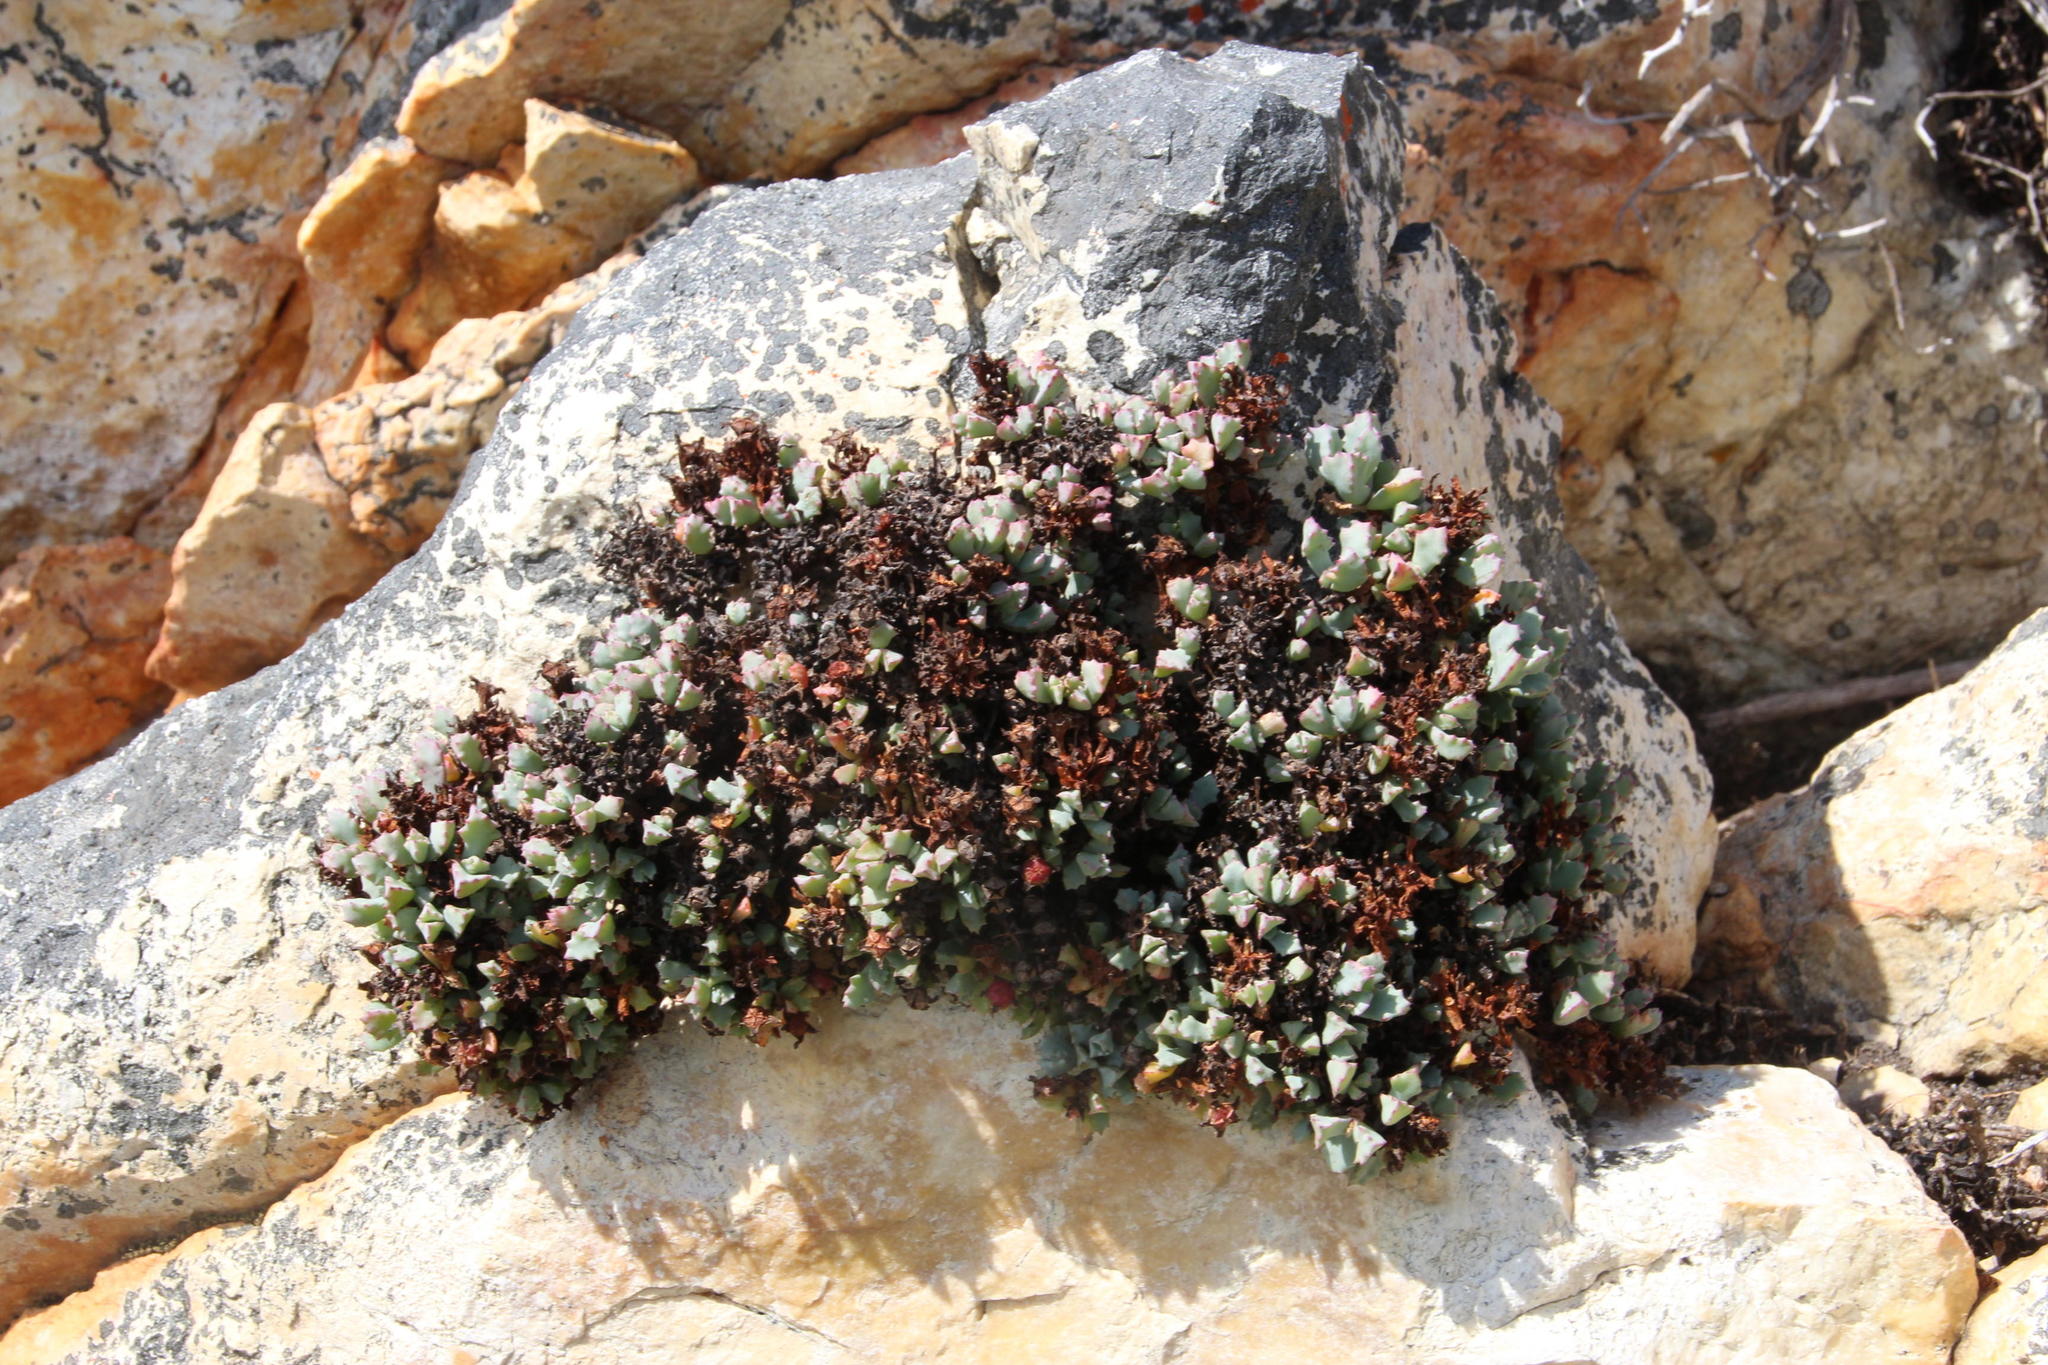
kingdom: Plantae
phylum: Tracheophyta
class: Magnoliopsida
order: Caryophyllales
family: Aizoaceae
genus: Oscularia
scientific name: Oscularia deltoides
